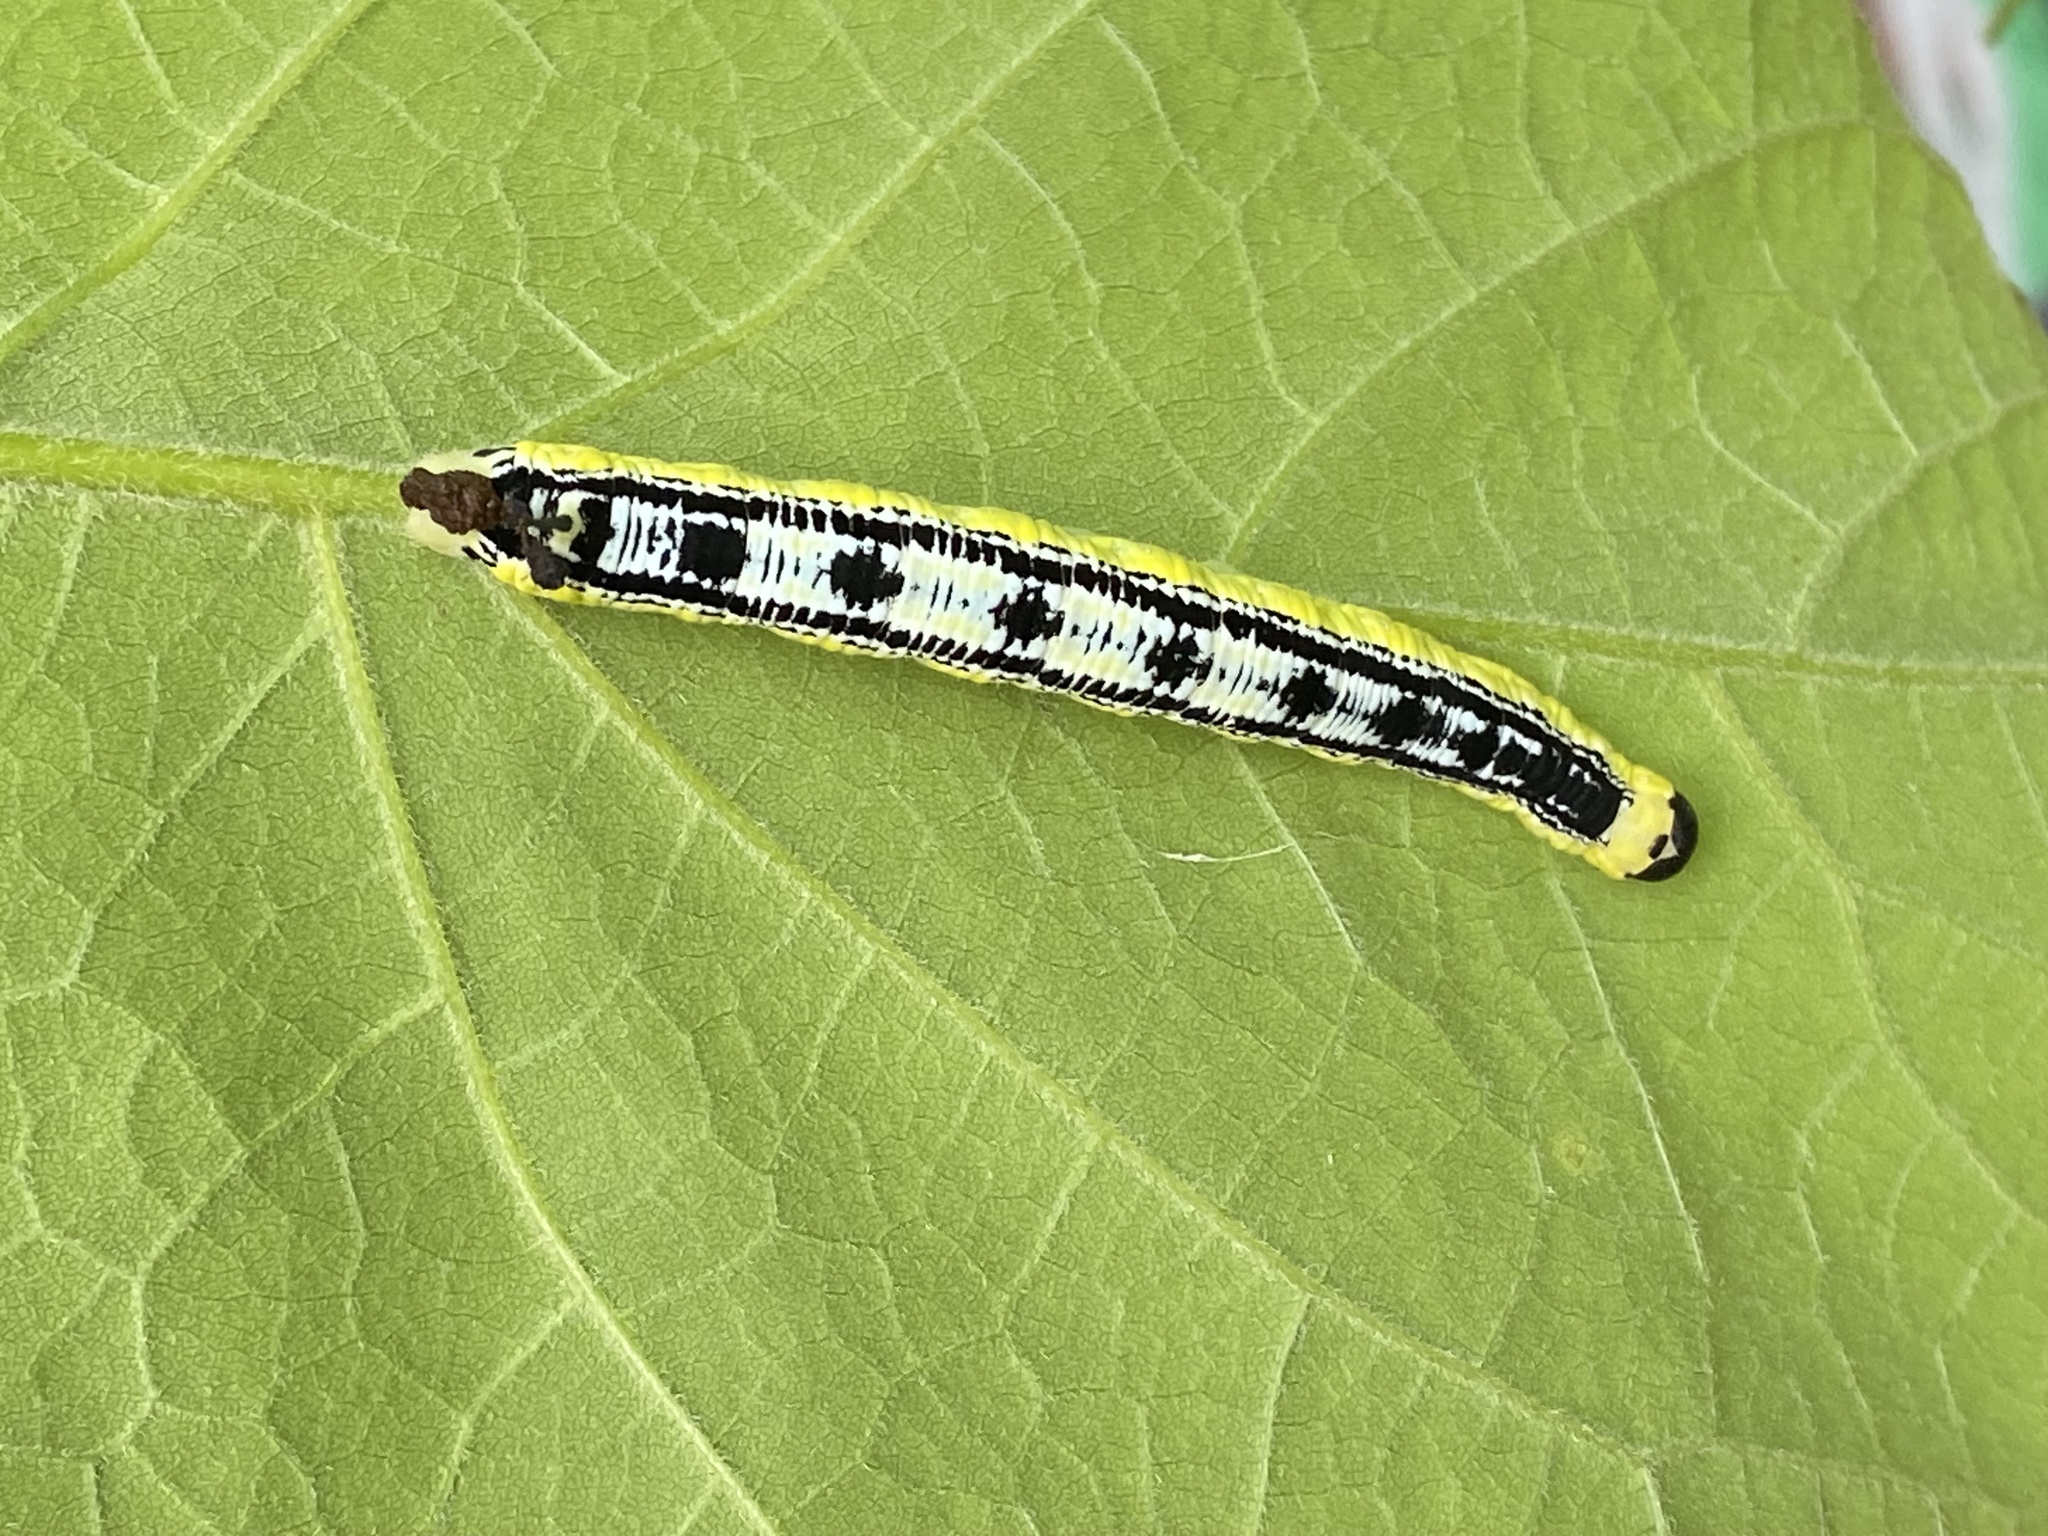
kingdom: Animalia
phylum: Arthropoda
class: Insecta
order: Lepidoptera
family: Sphingidae
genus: Ceratomia
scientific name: Ceratomia catalpae
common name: Catalpa hornworm
